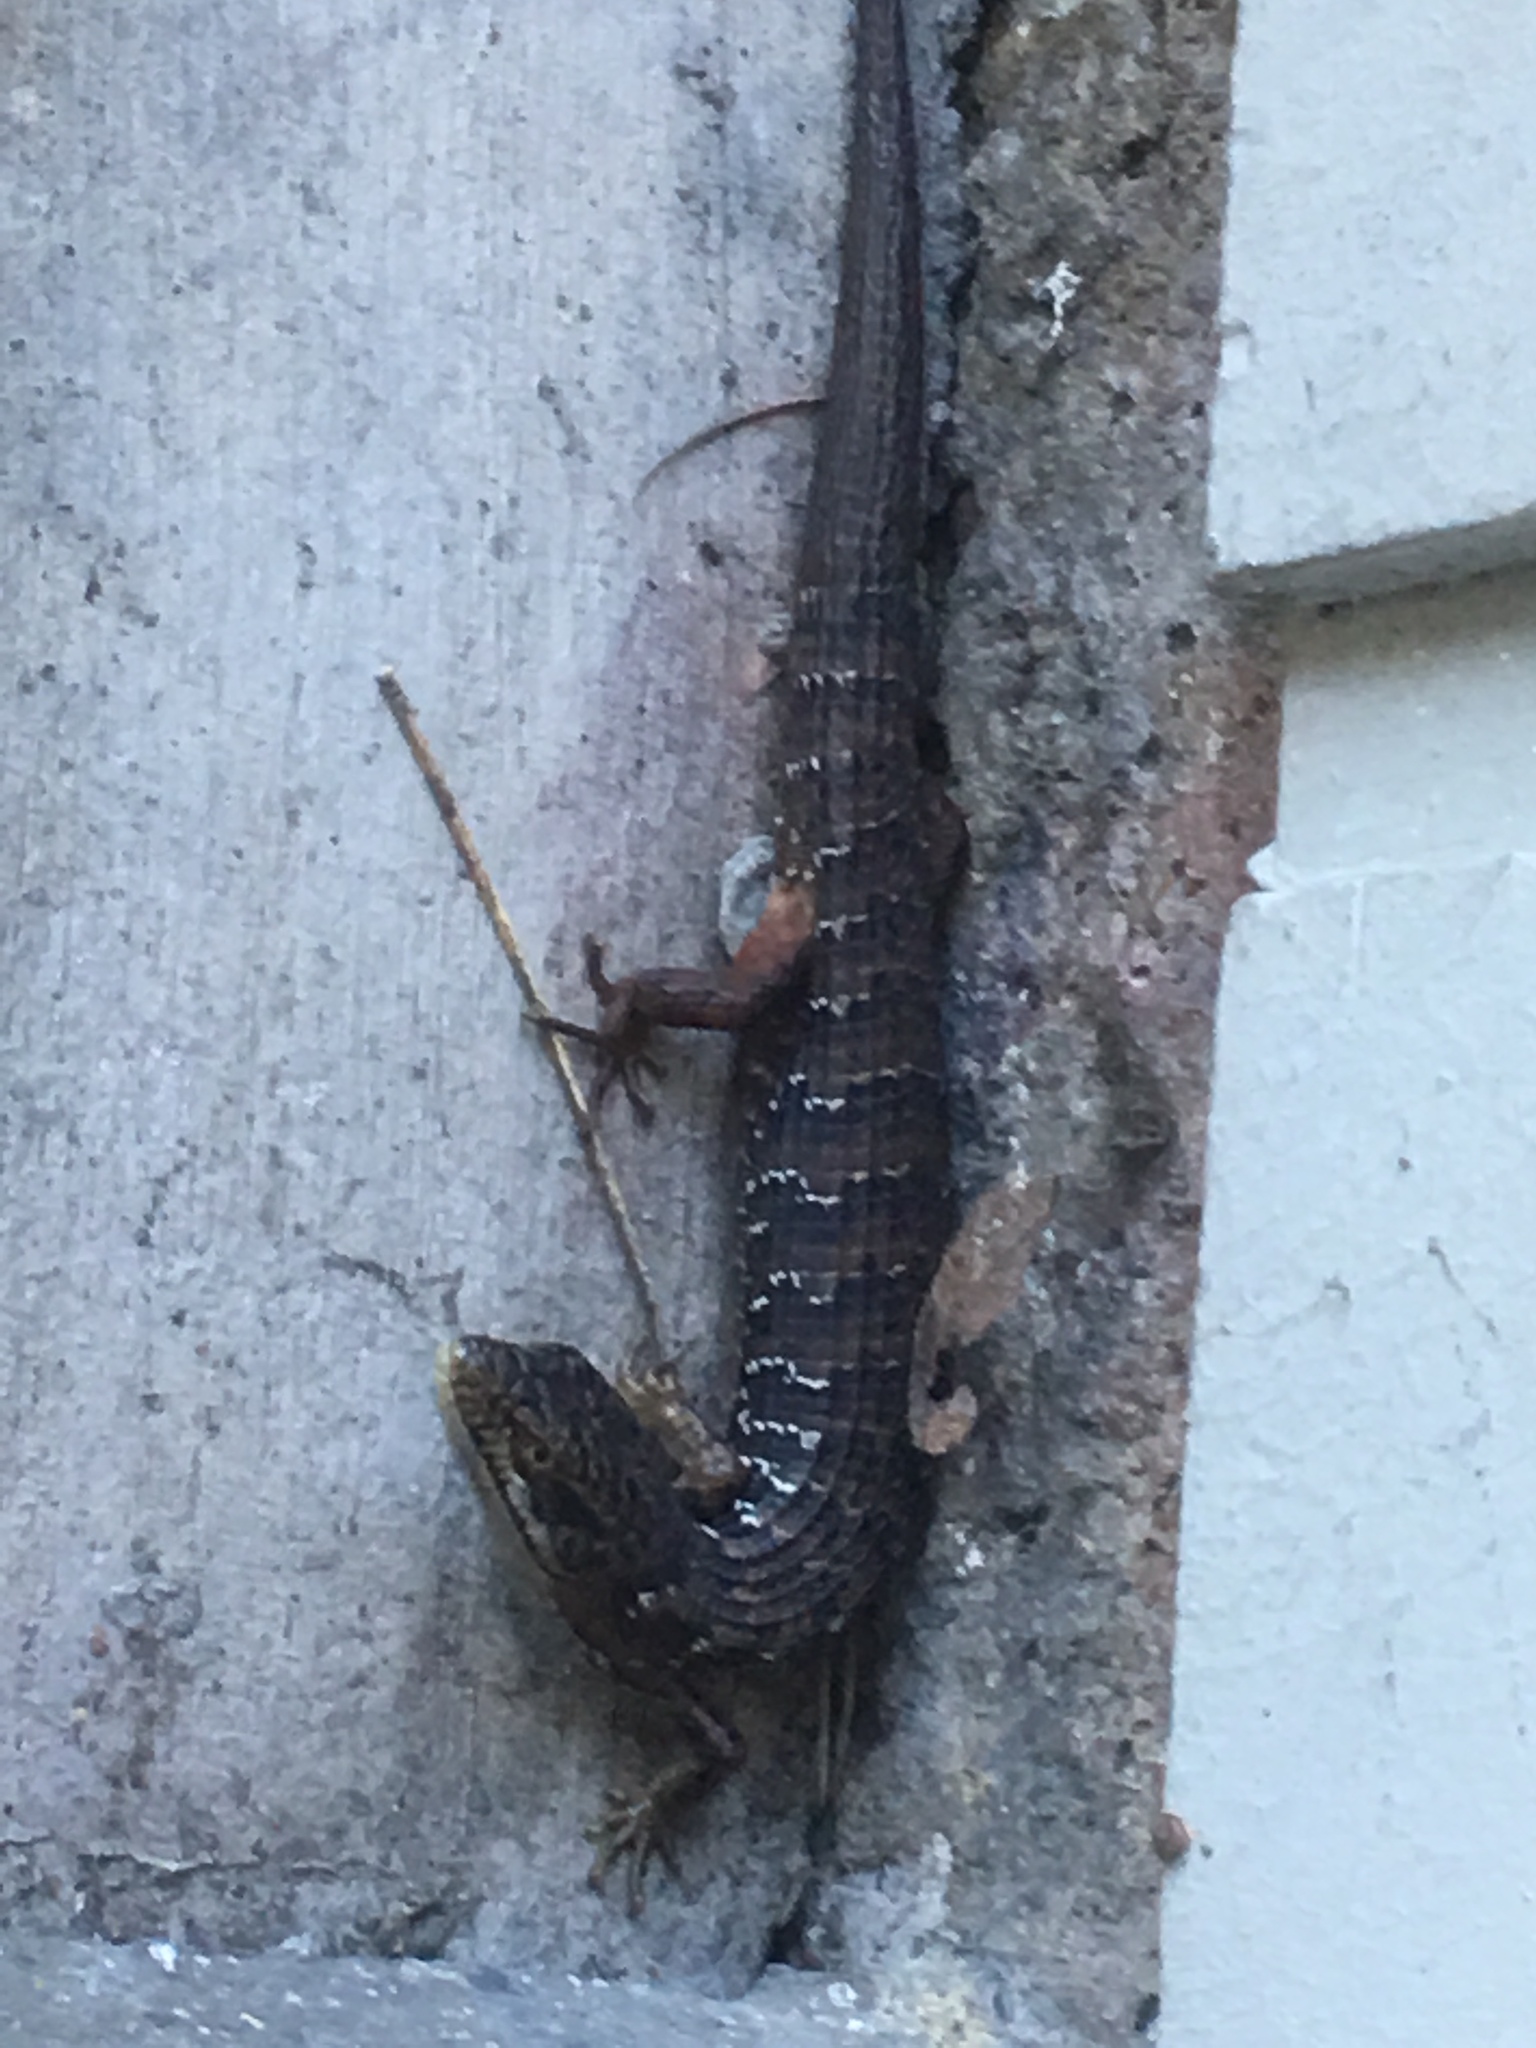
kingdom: Animalia
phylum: Chordata
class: Squamata
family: Anguidae
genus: Elgaria
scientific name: Elgaria multicarinata
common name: Southern alligator lizard
